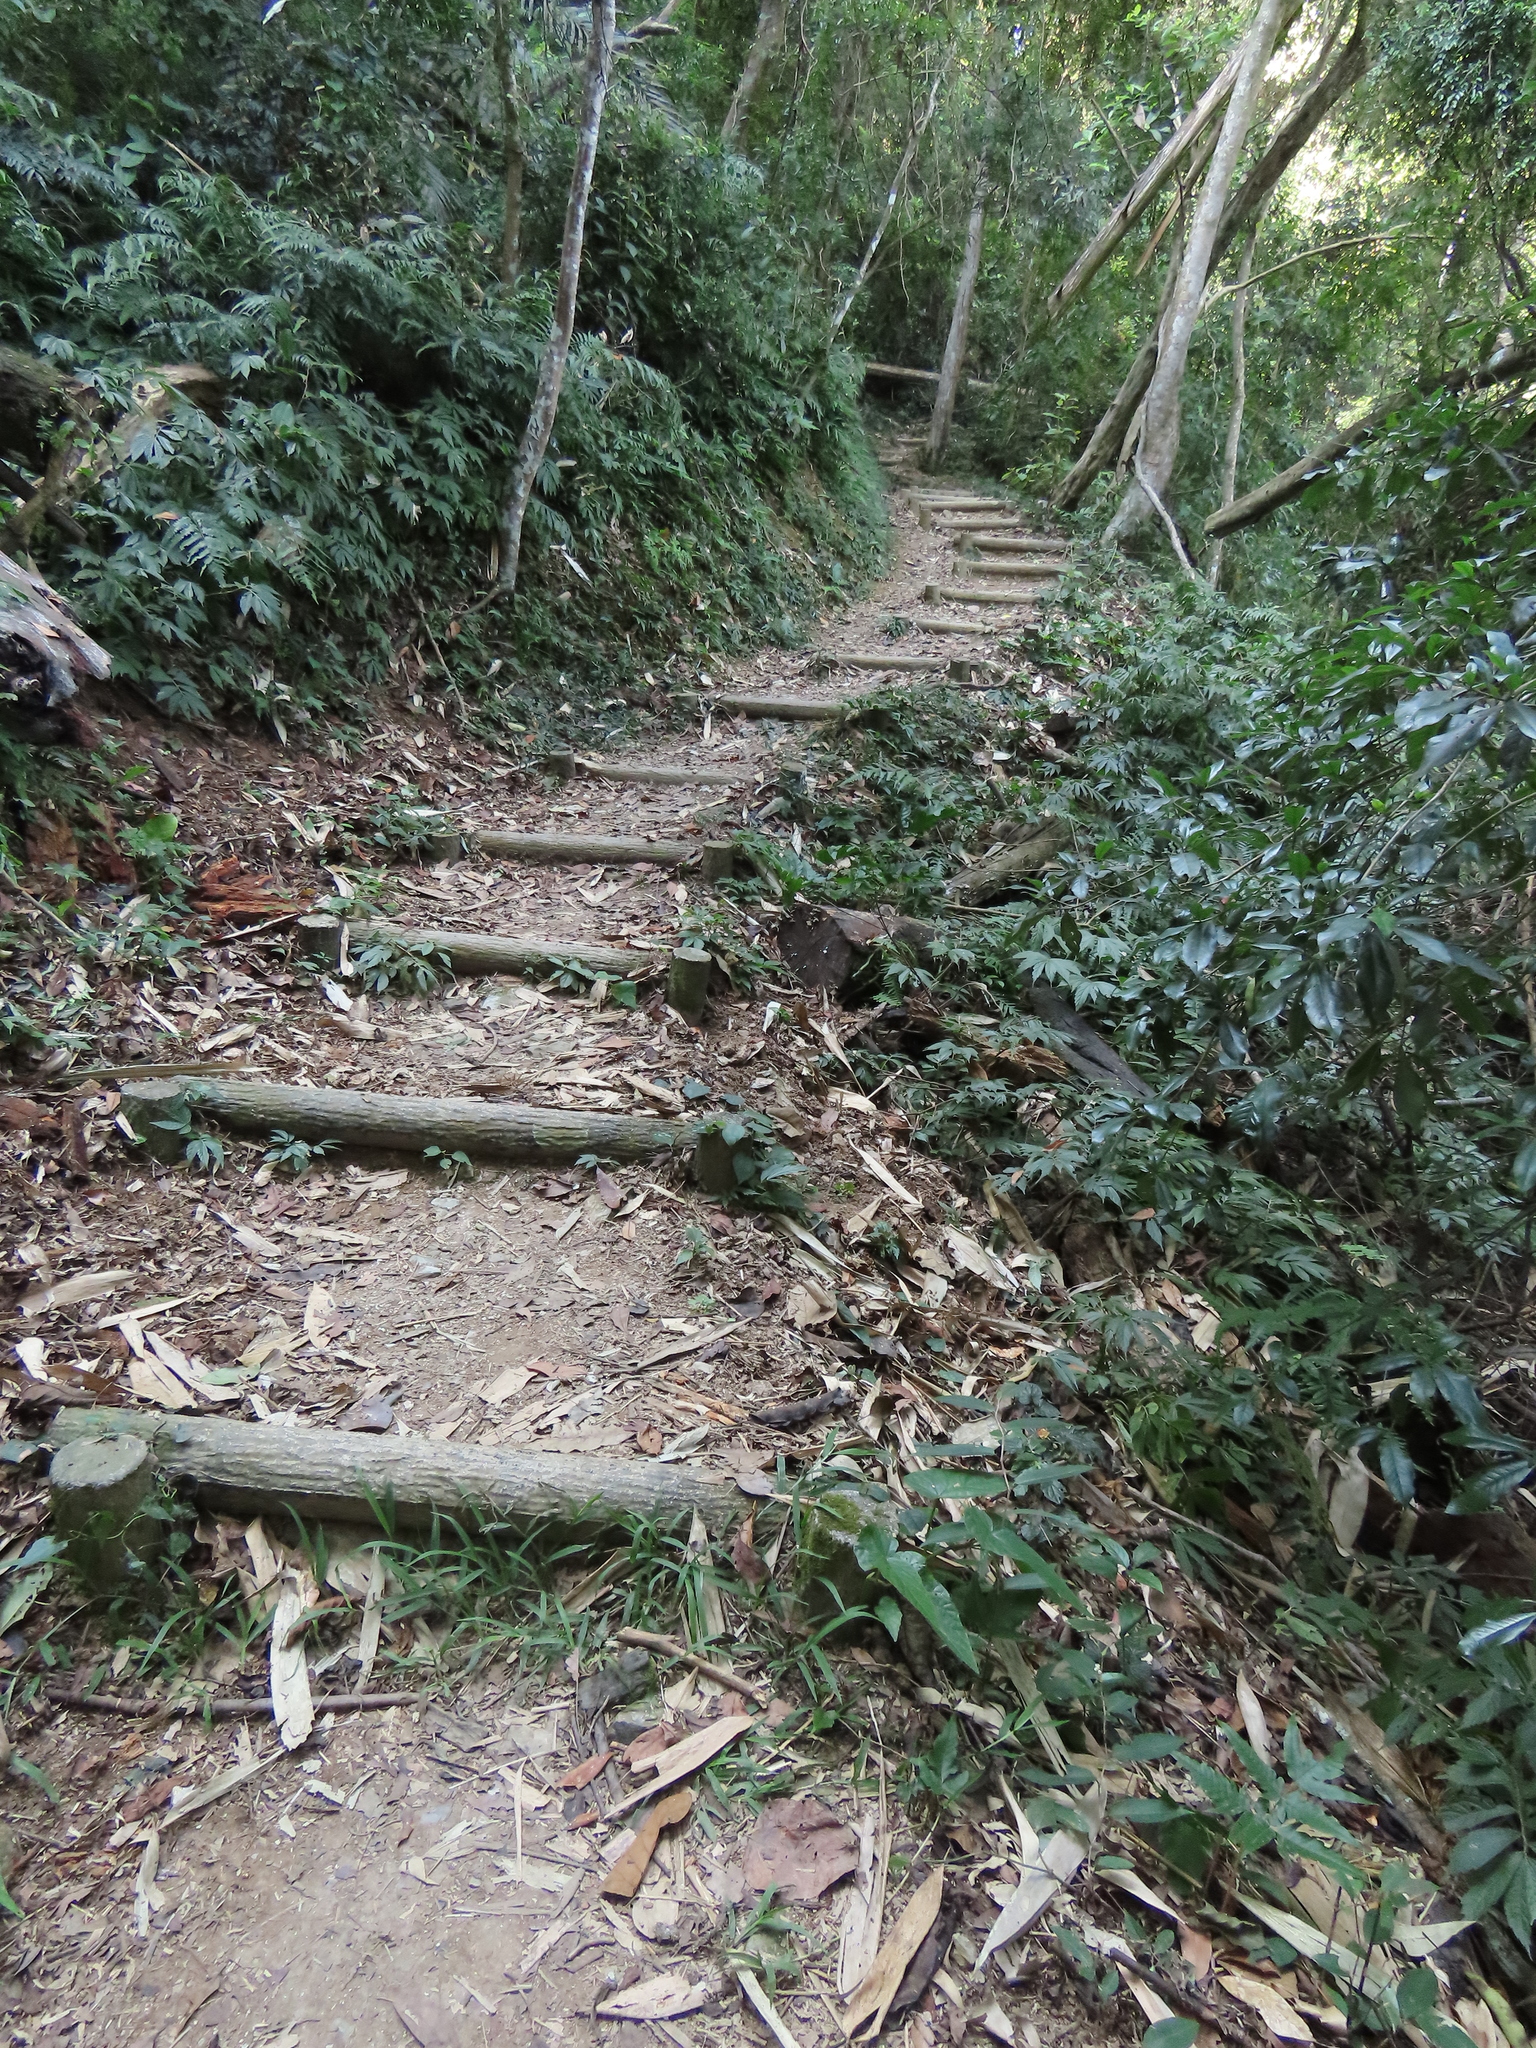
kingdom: Plantae
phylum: Tracheophyta
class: Magnoliopsida
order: Cucurbitales
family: Begoniaceae
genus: Begonia
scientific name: Begonia longifolia
